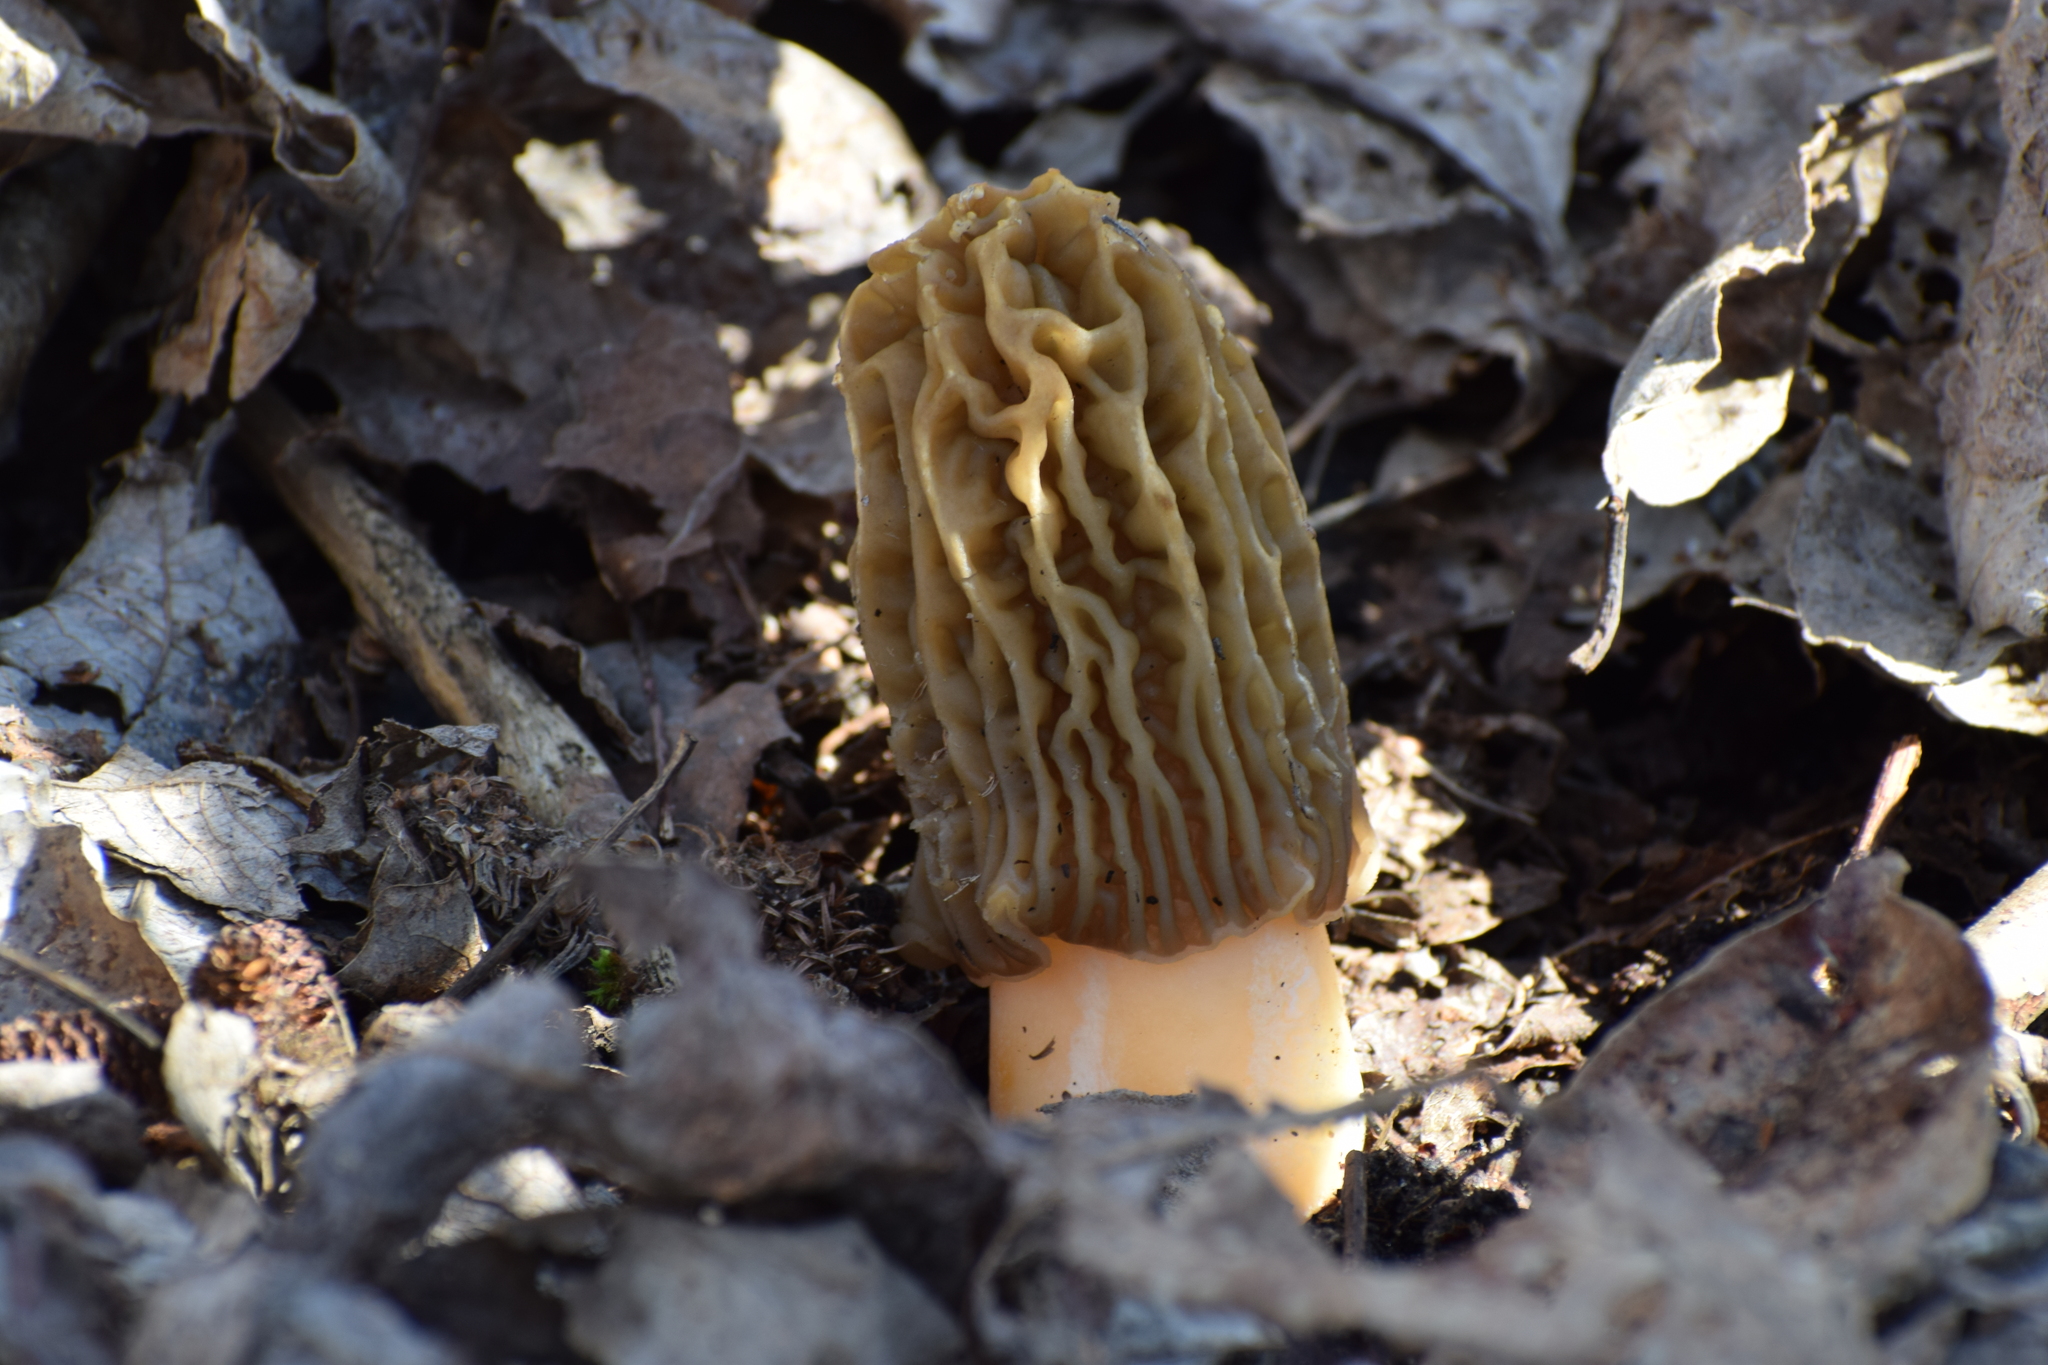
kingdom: Fungi
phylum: Ascomycota
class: Pezizomycetes
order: Pezizales
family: Morchellaceae
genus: Verpa
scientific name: Verpa bohemica
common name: Wrinkled thimble morel
